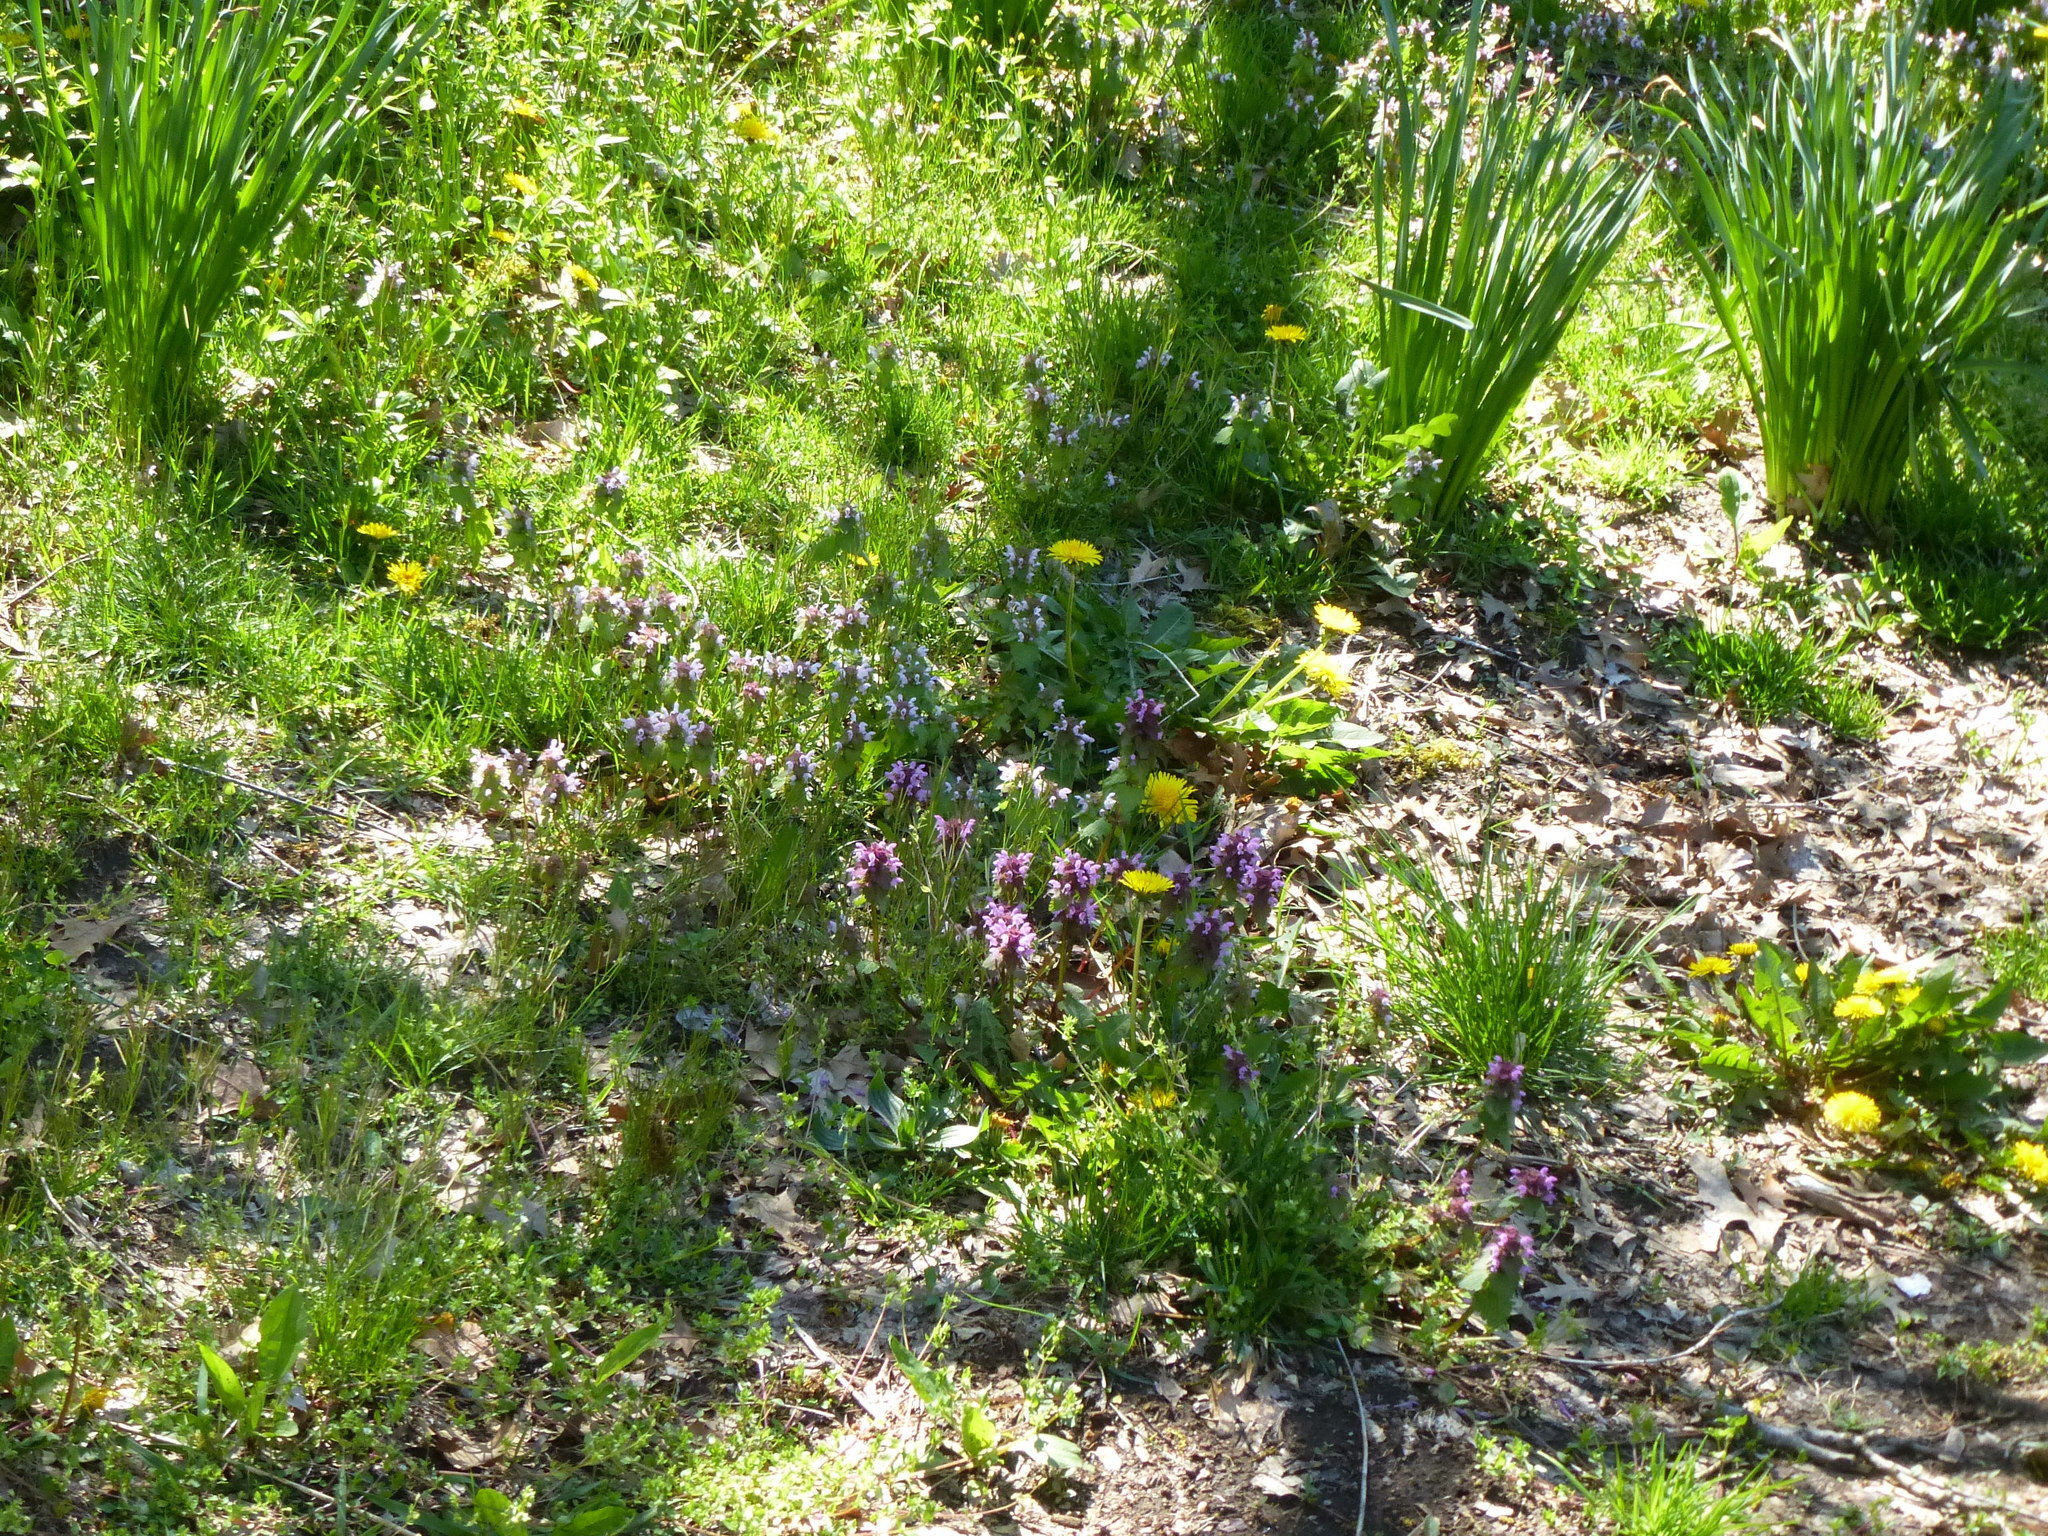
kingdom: Plantae
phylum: Tracheophyta
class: Magnoliopsida
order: Lamiales
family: Lamiaceae
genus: Lamium
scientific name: Lamium purpureum
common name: Red dead-nettle
